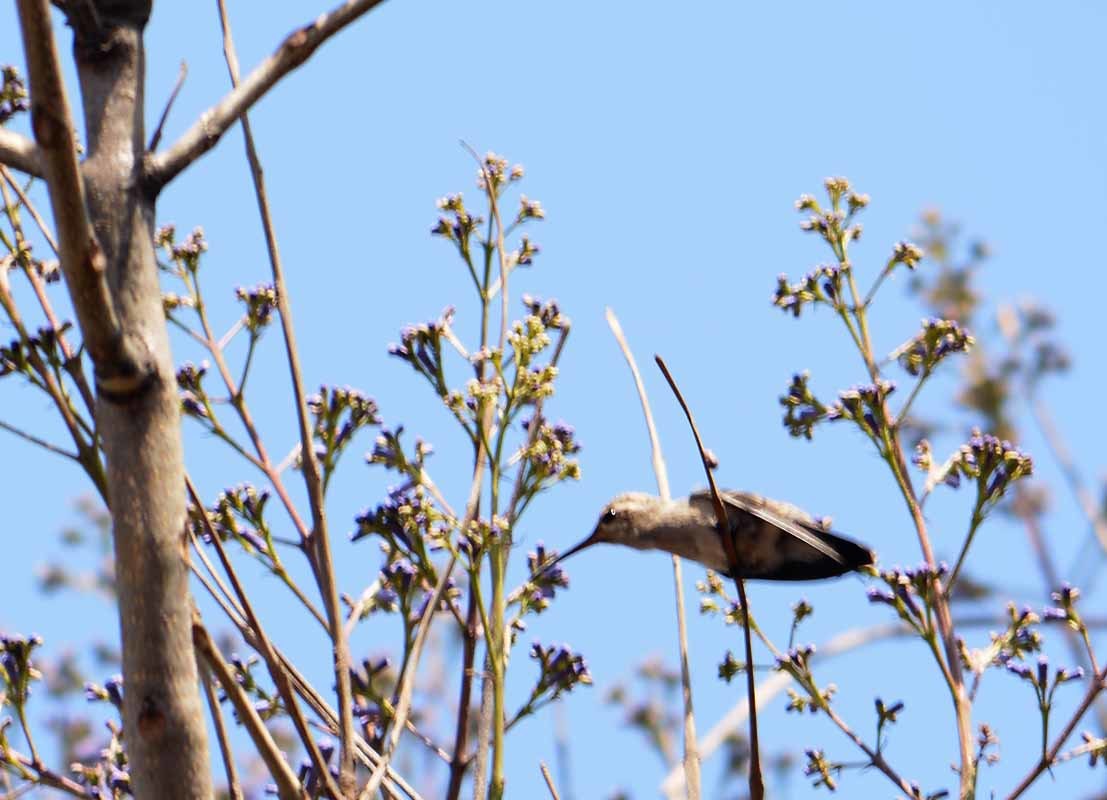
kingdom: Animalia
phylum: Chordata
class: Aves
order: Apodiformes
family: Trochilidae
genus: Cynanthus
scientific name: Cynanthus latirostris
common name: Broad-billed hummingbird
